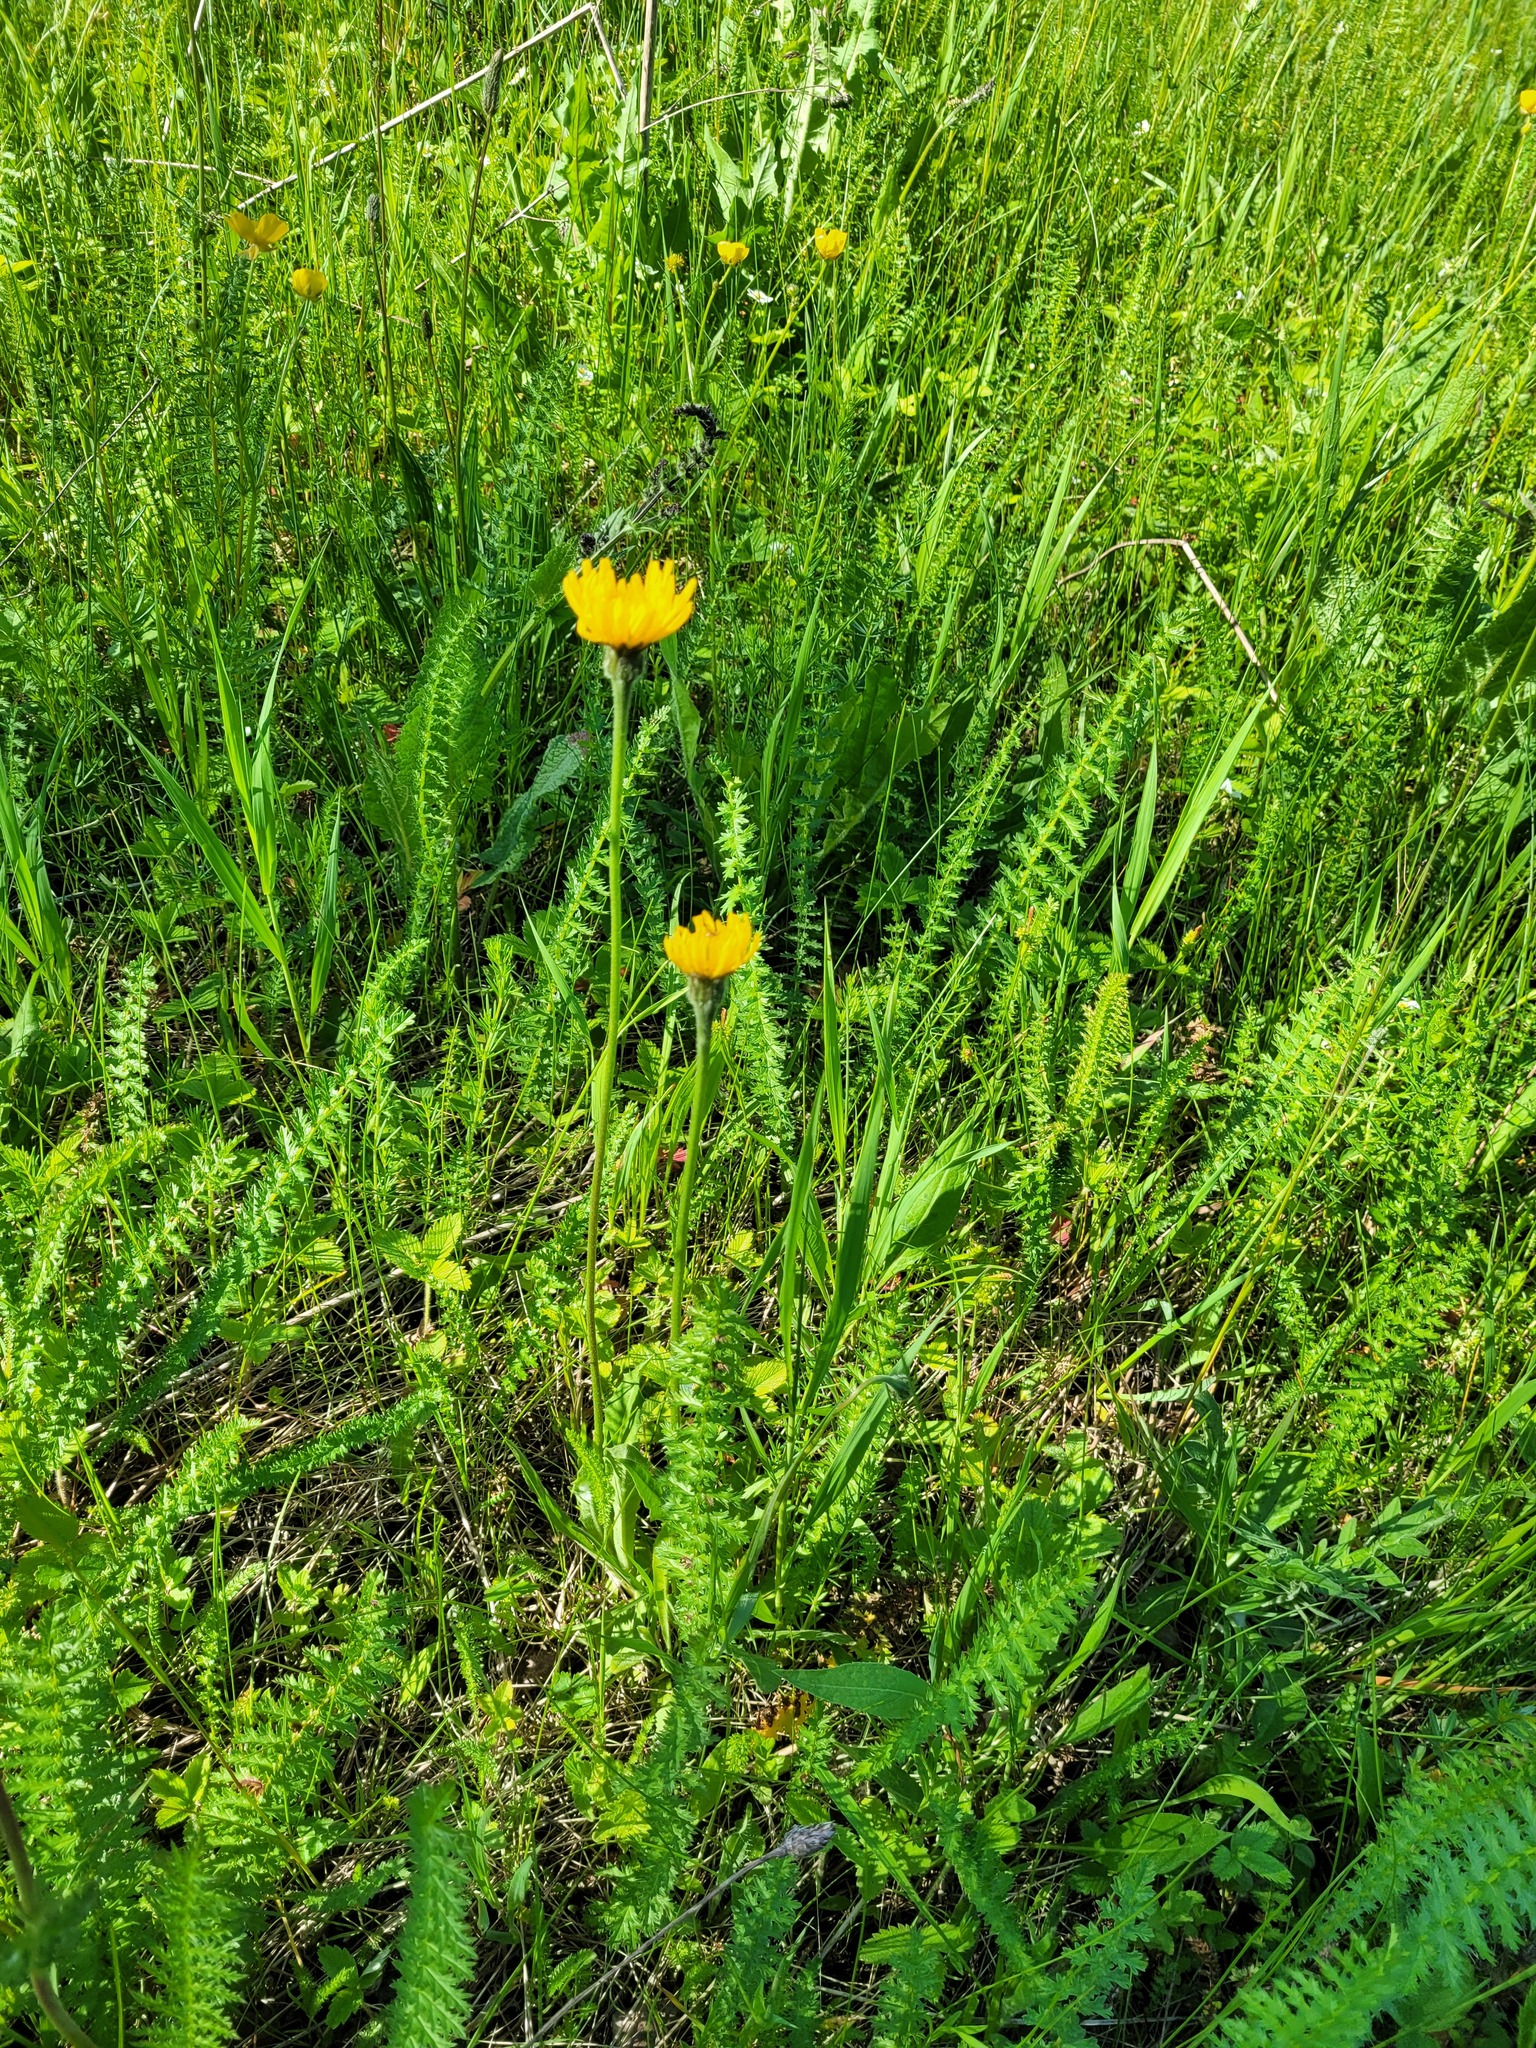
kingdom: Plantae
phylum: Tracheophyta
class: Magnoliopsida
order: Asterales
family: Asteraceae
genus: Leontodon
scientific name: Leontodon hispidus
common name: Rough hawkbit
